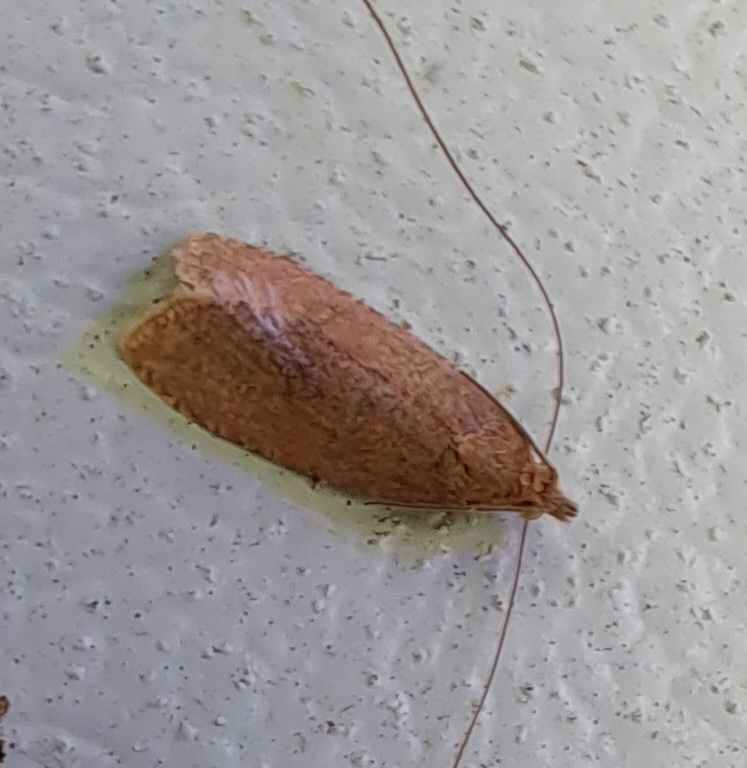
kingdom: Animalia
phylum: Arthropoda
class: Insecta
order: Lepidoptera
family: Tortricidae
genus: Celypha
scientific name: Celypha rufana
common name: Lakes marble
